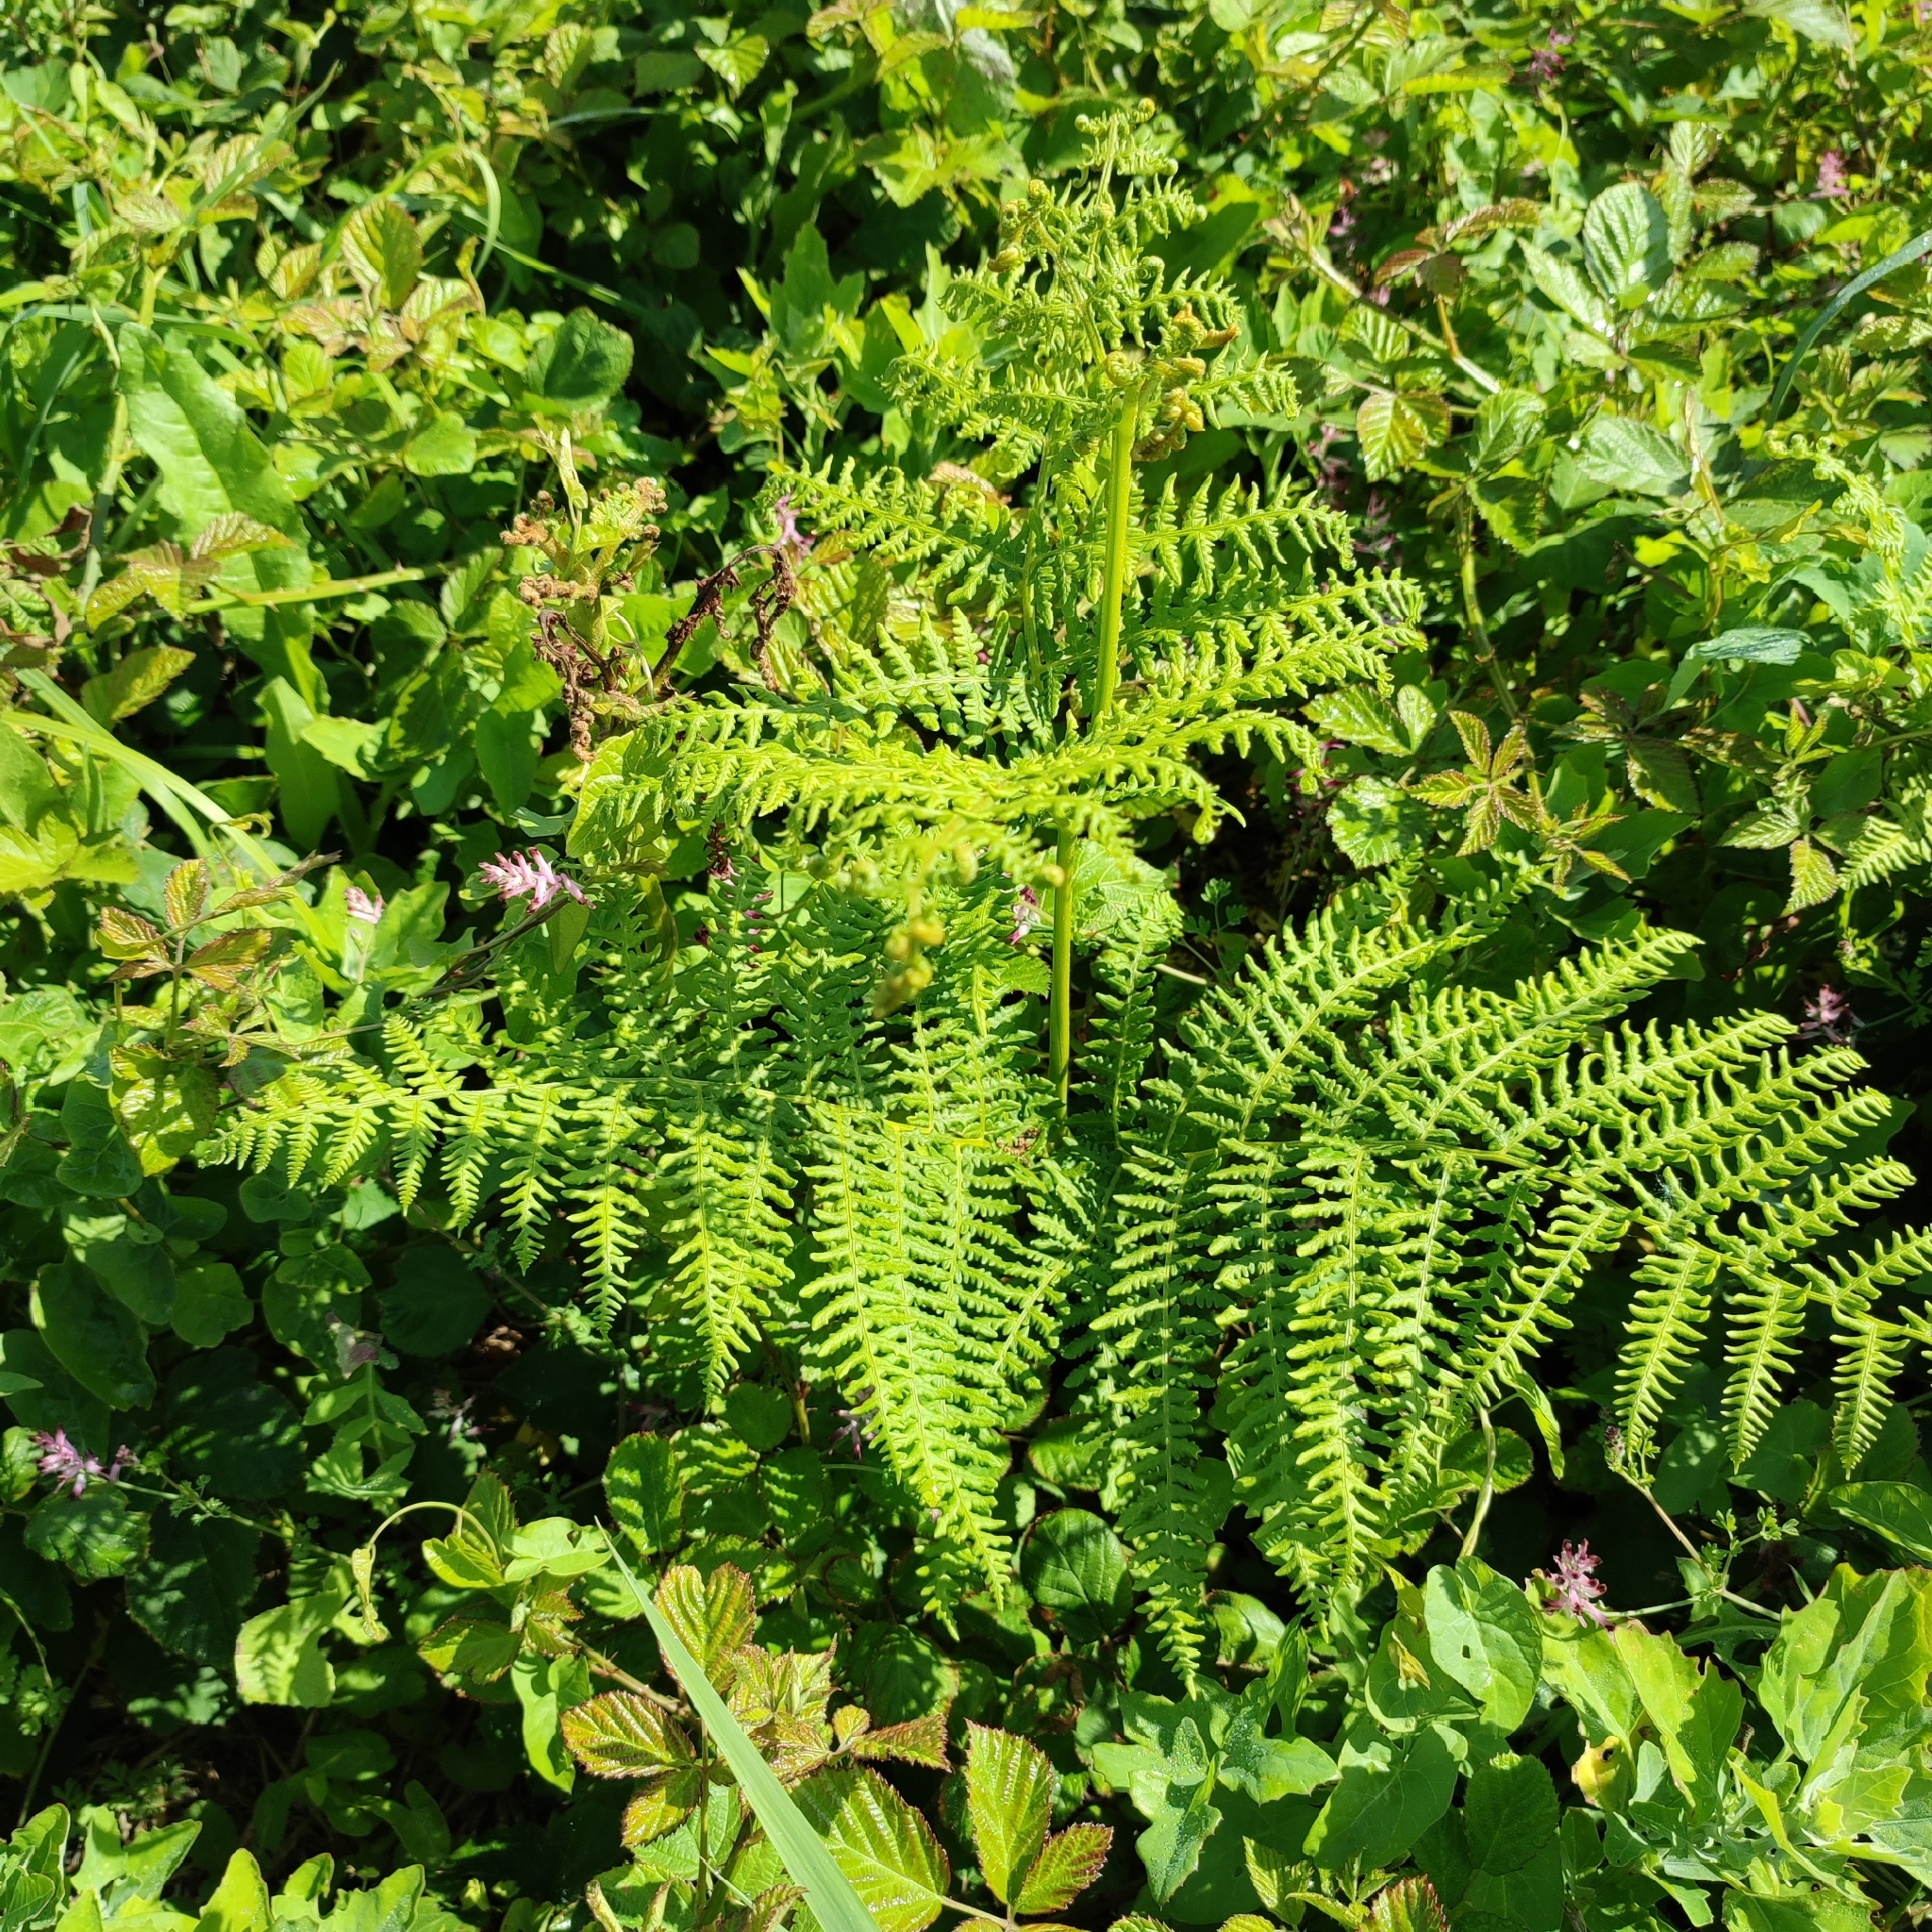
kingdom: Plantae
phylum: Tracheophyta
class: Polypodiopsida
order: Polypodiales
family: Dennstaedtiaceae
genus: Pteridium
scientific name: Pteridium aquilinum
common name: Bracken
